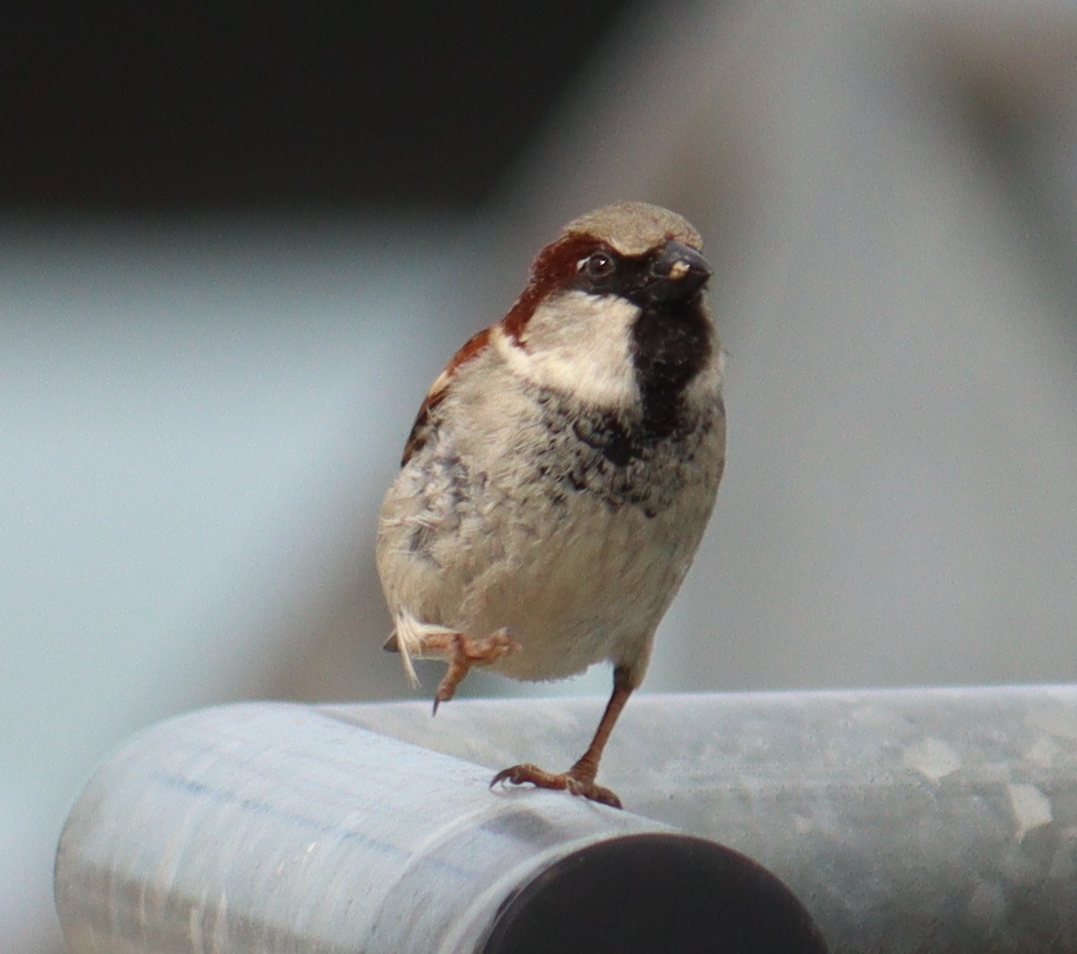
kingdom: Animalia
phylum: Chordata
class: Aves
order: Passeriformes
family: Passeridae
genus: Passer
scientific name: Passer domesticus
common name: House sparrow
